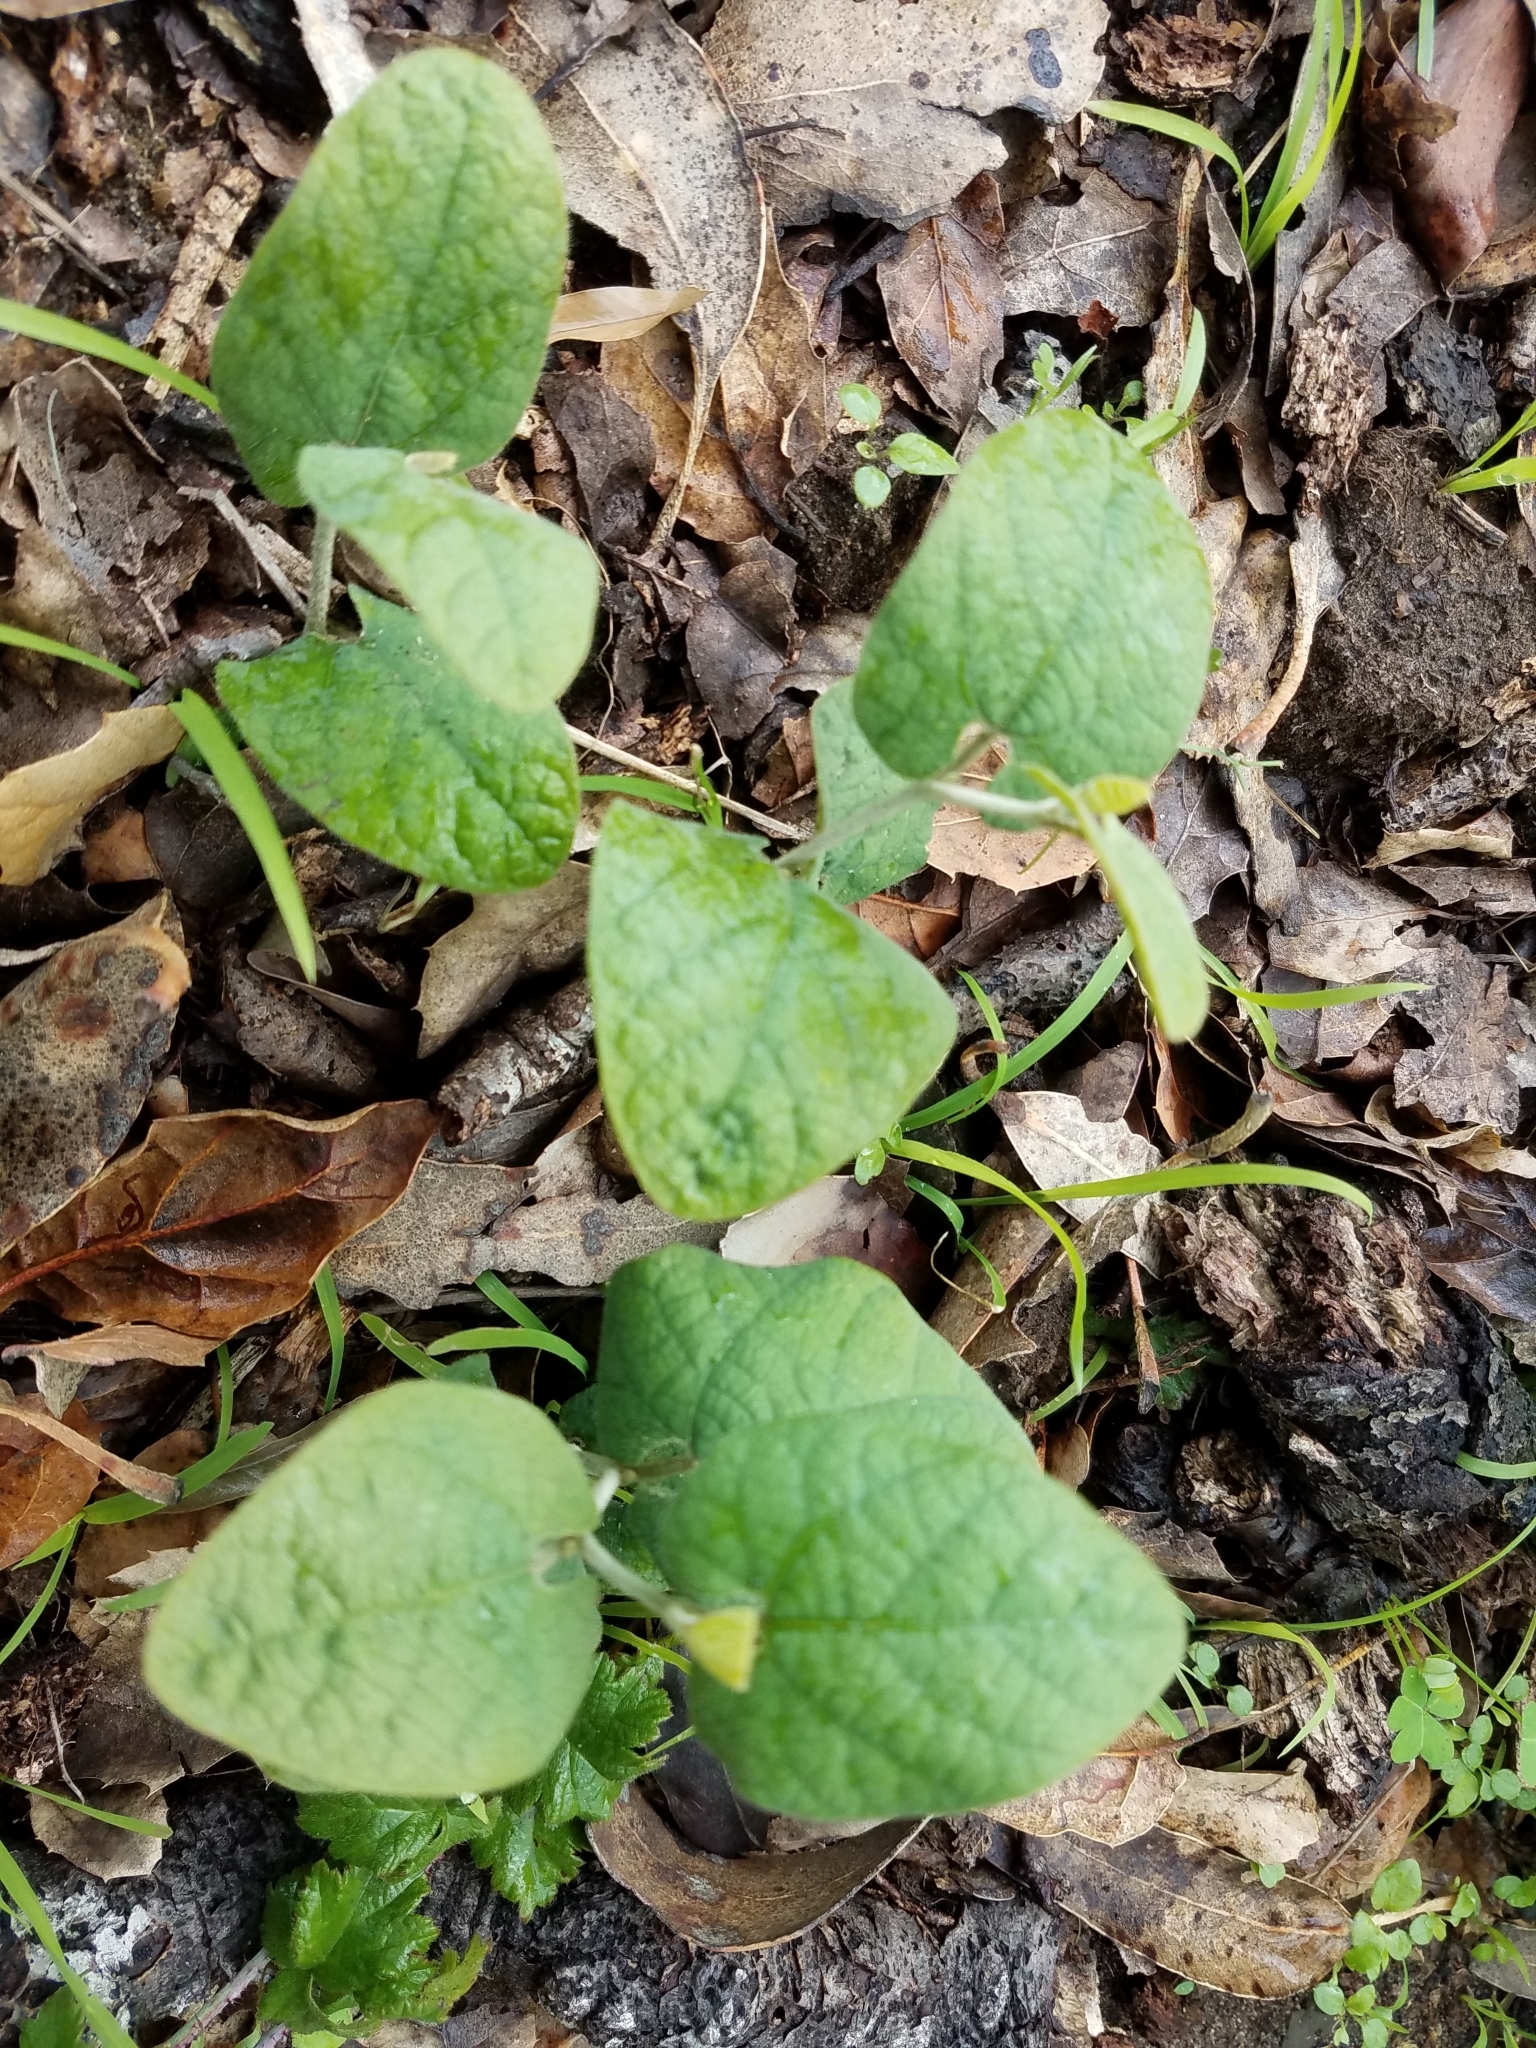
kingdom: Plantae
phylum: Tracheophyta
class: Magnoliopsida
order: Piperales
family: Aristolochiaceae
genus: Isotrema
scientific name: Isotrema californicum
